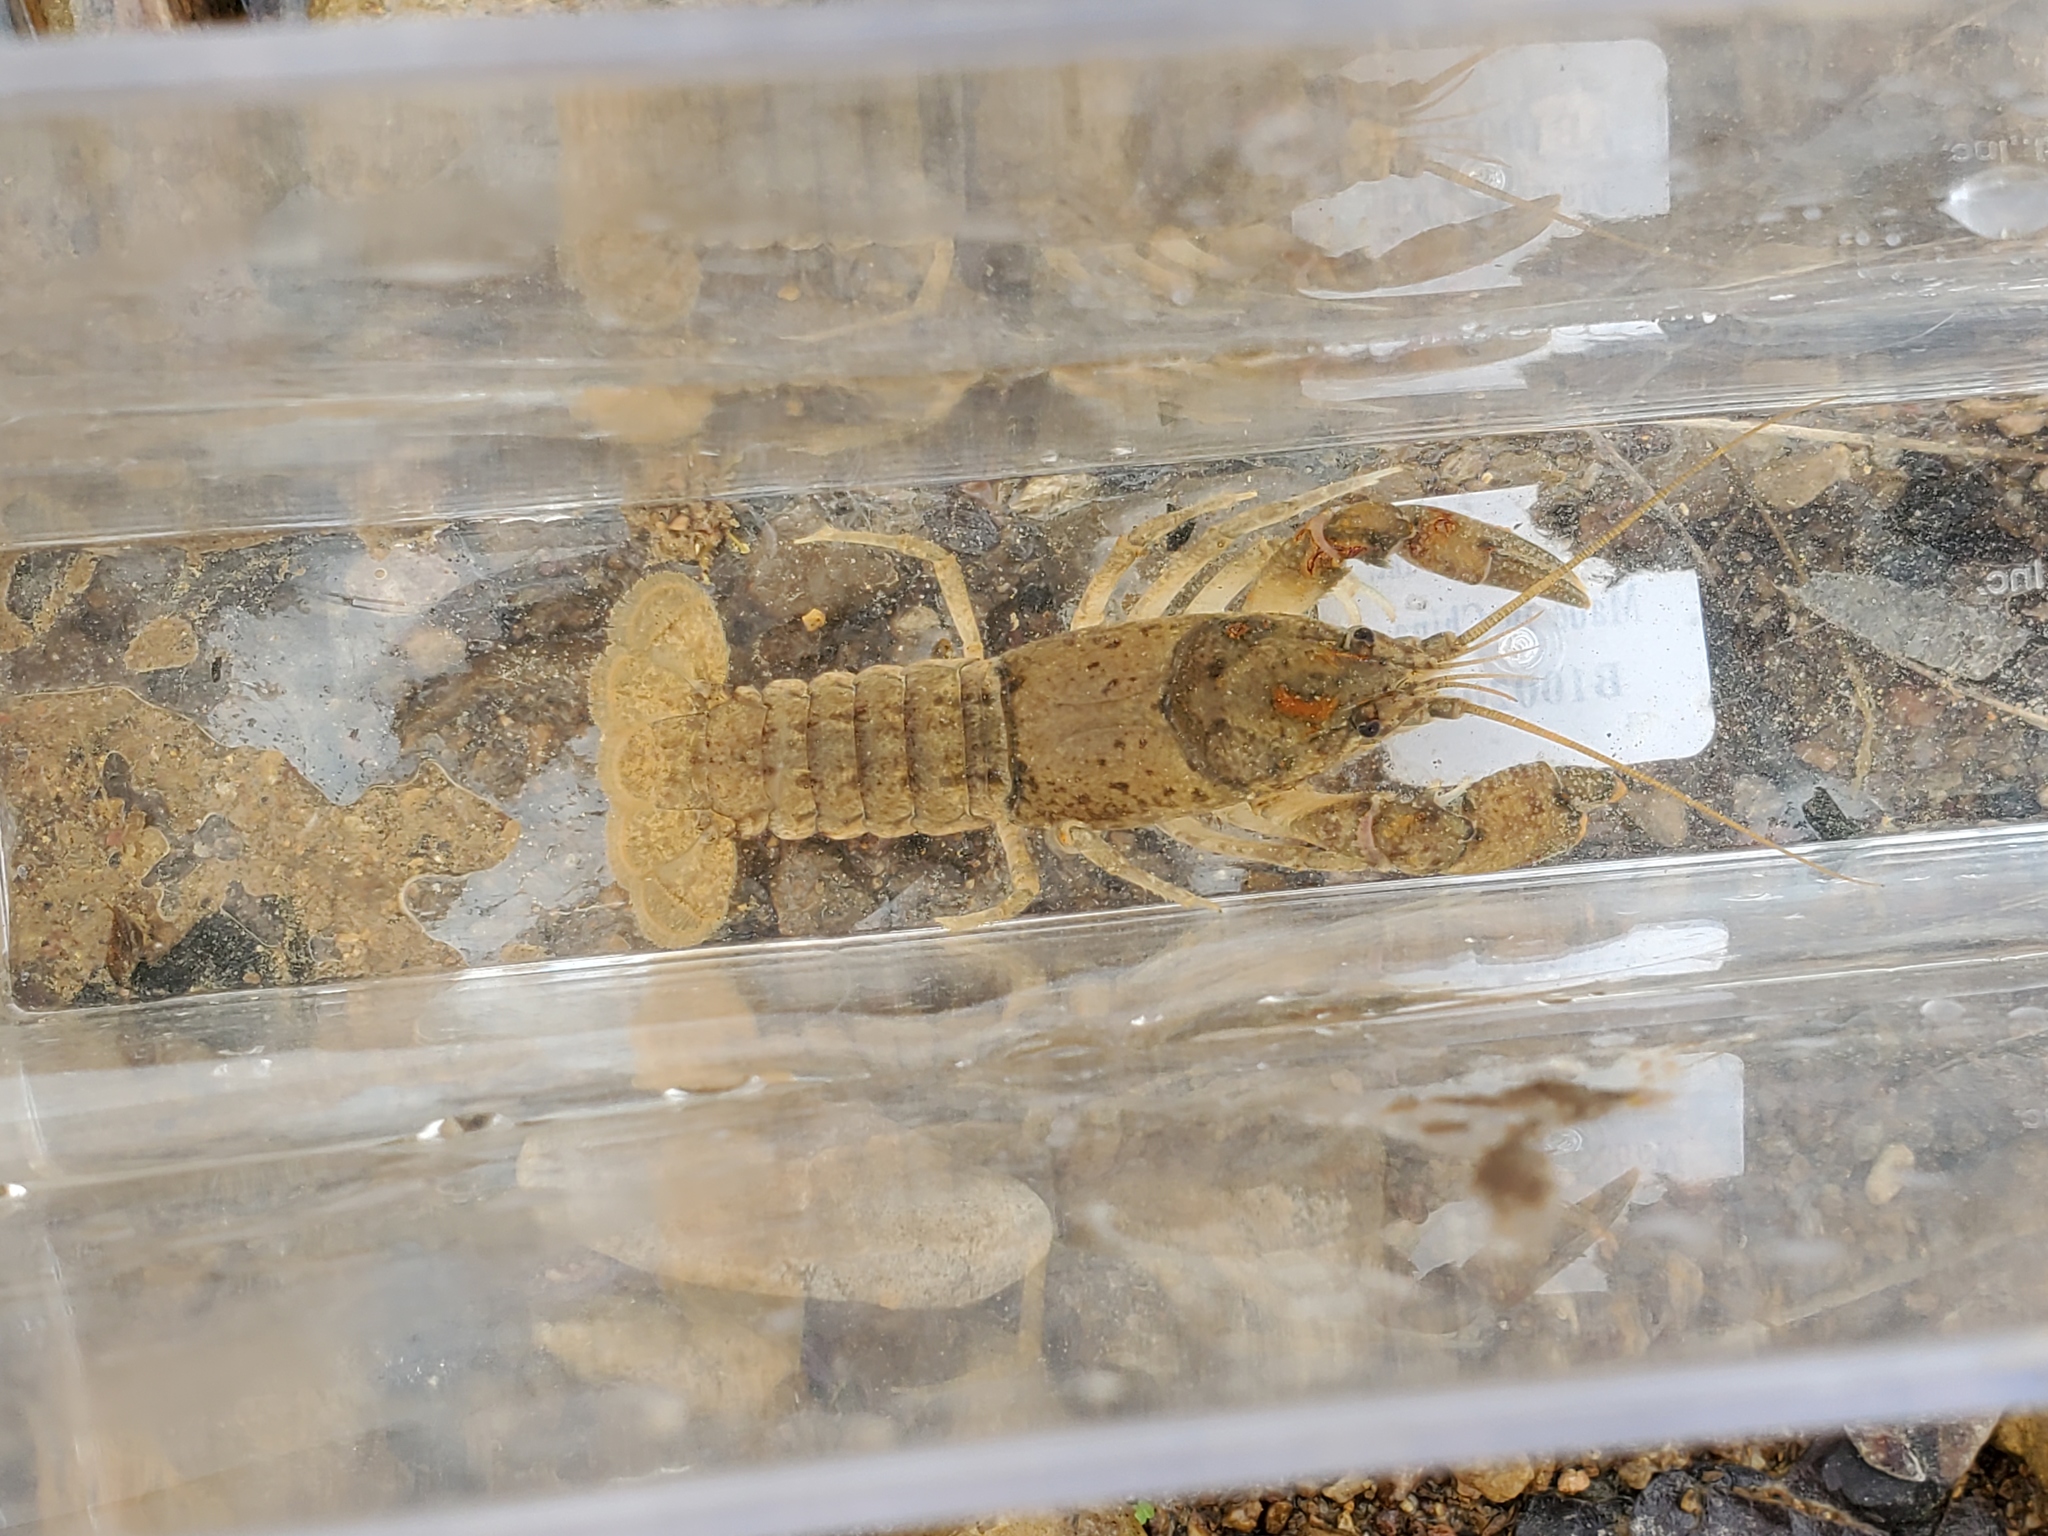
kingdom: Animalia
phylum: Arthropoda
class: Malacostraca
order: Decapoda
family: Cambaridae
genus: Cambarus
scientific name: Cambarus tenebrosus
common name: Cavespring crayfish
